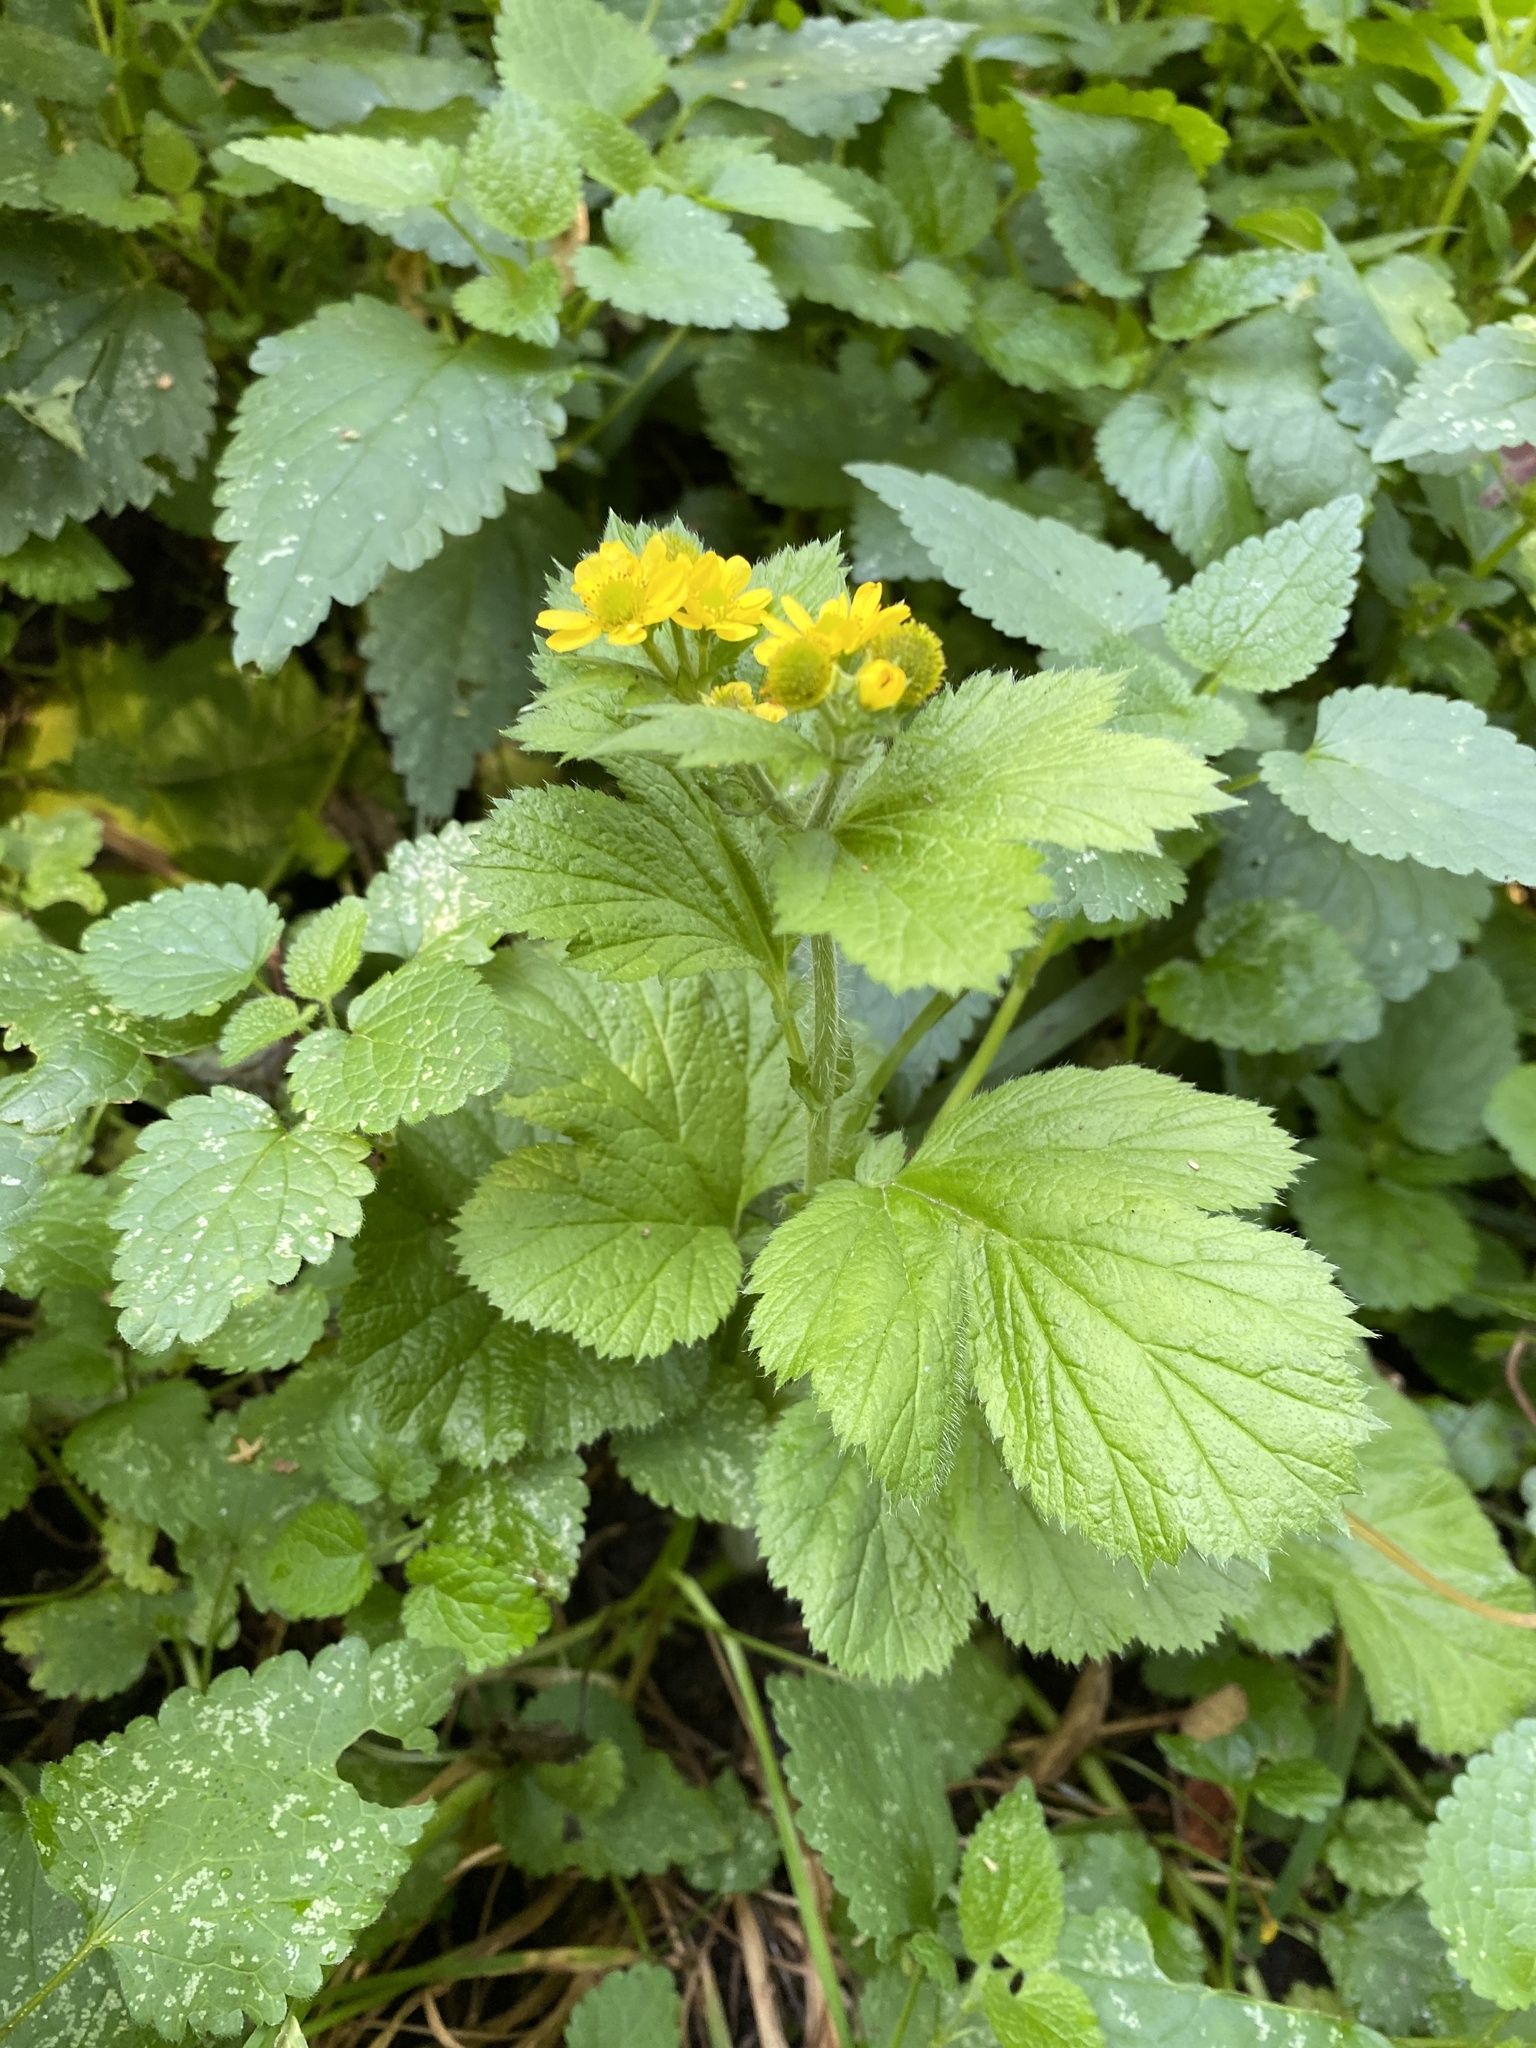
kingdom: Plantae
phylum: Tracheophyta
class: Magnoliopsida
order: Rosales
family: Rosaceae
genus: Geum
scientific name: Geum macrophyllum
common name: Large-leaved avens
